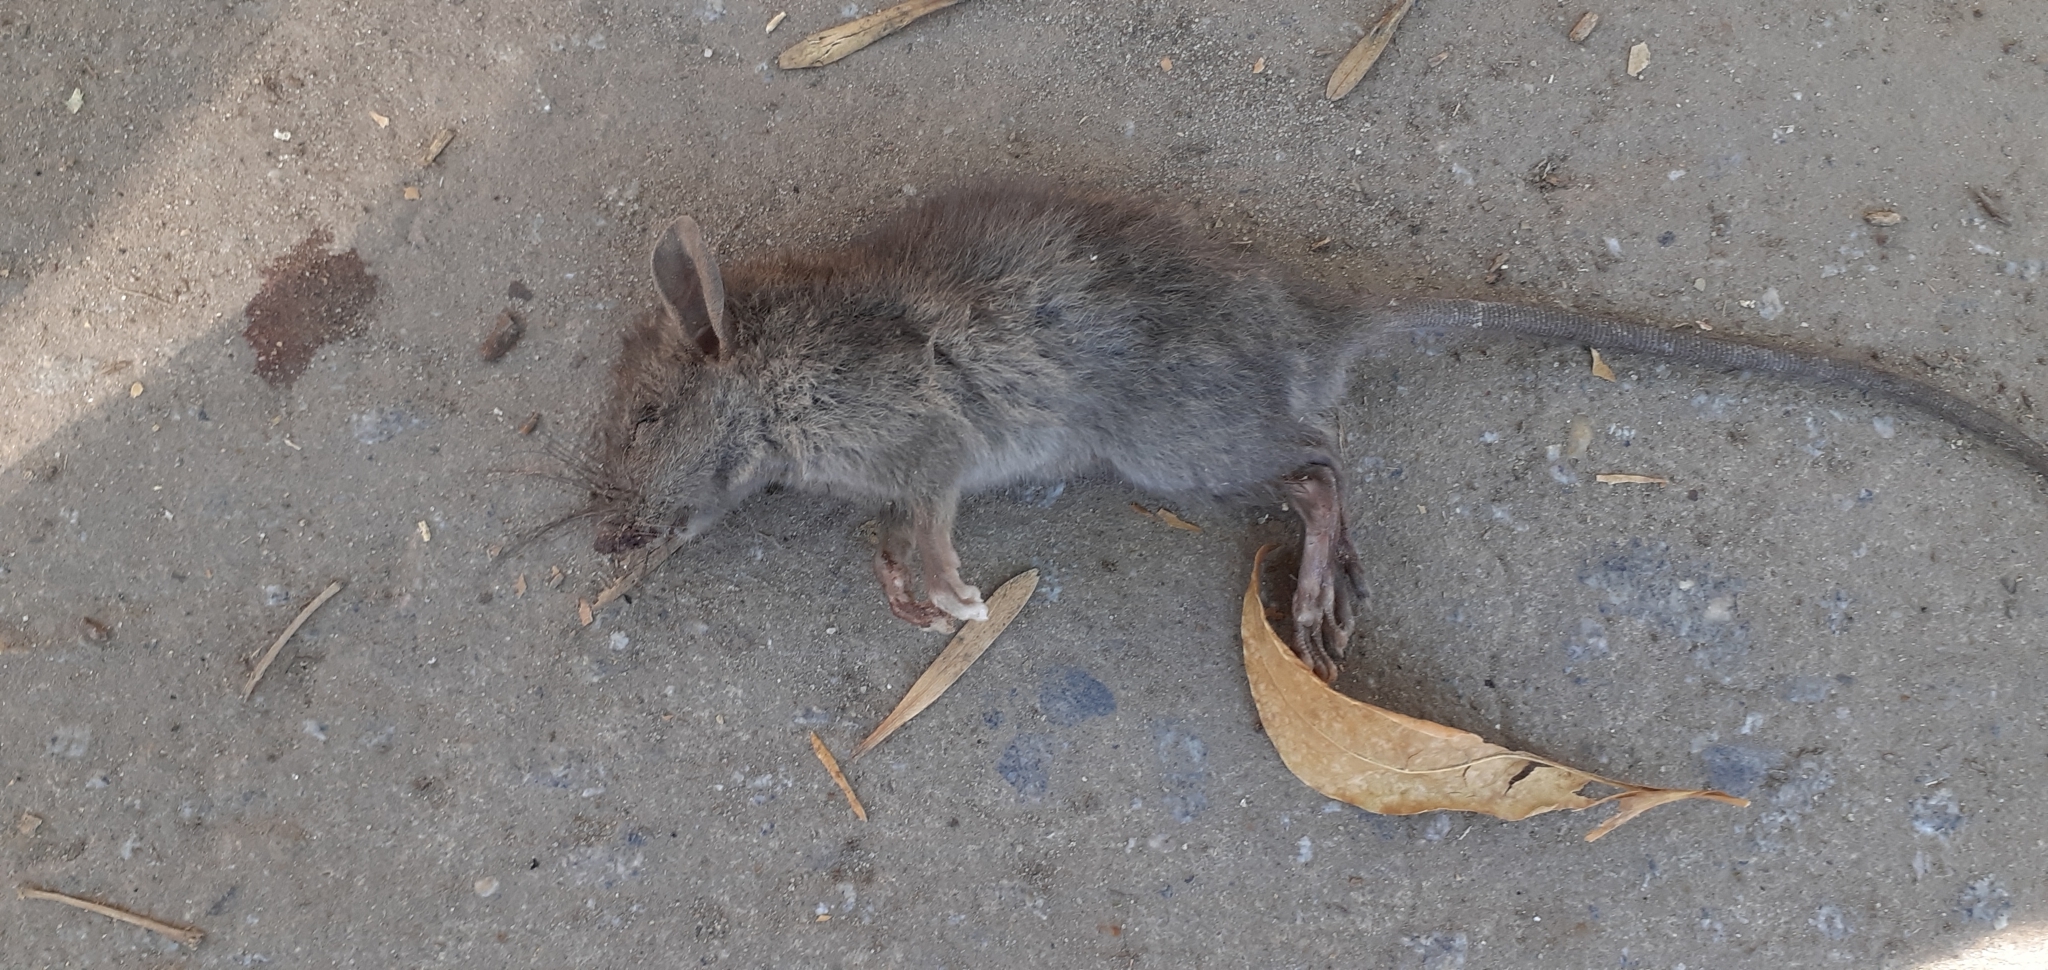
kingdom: Animalia
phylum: Chordata
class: Mammalia
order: Rodentia
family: Muridae
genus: Rattus
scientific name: Rattus rattus
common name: Black rat
